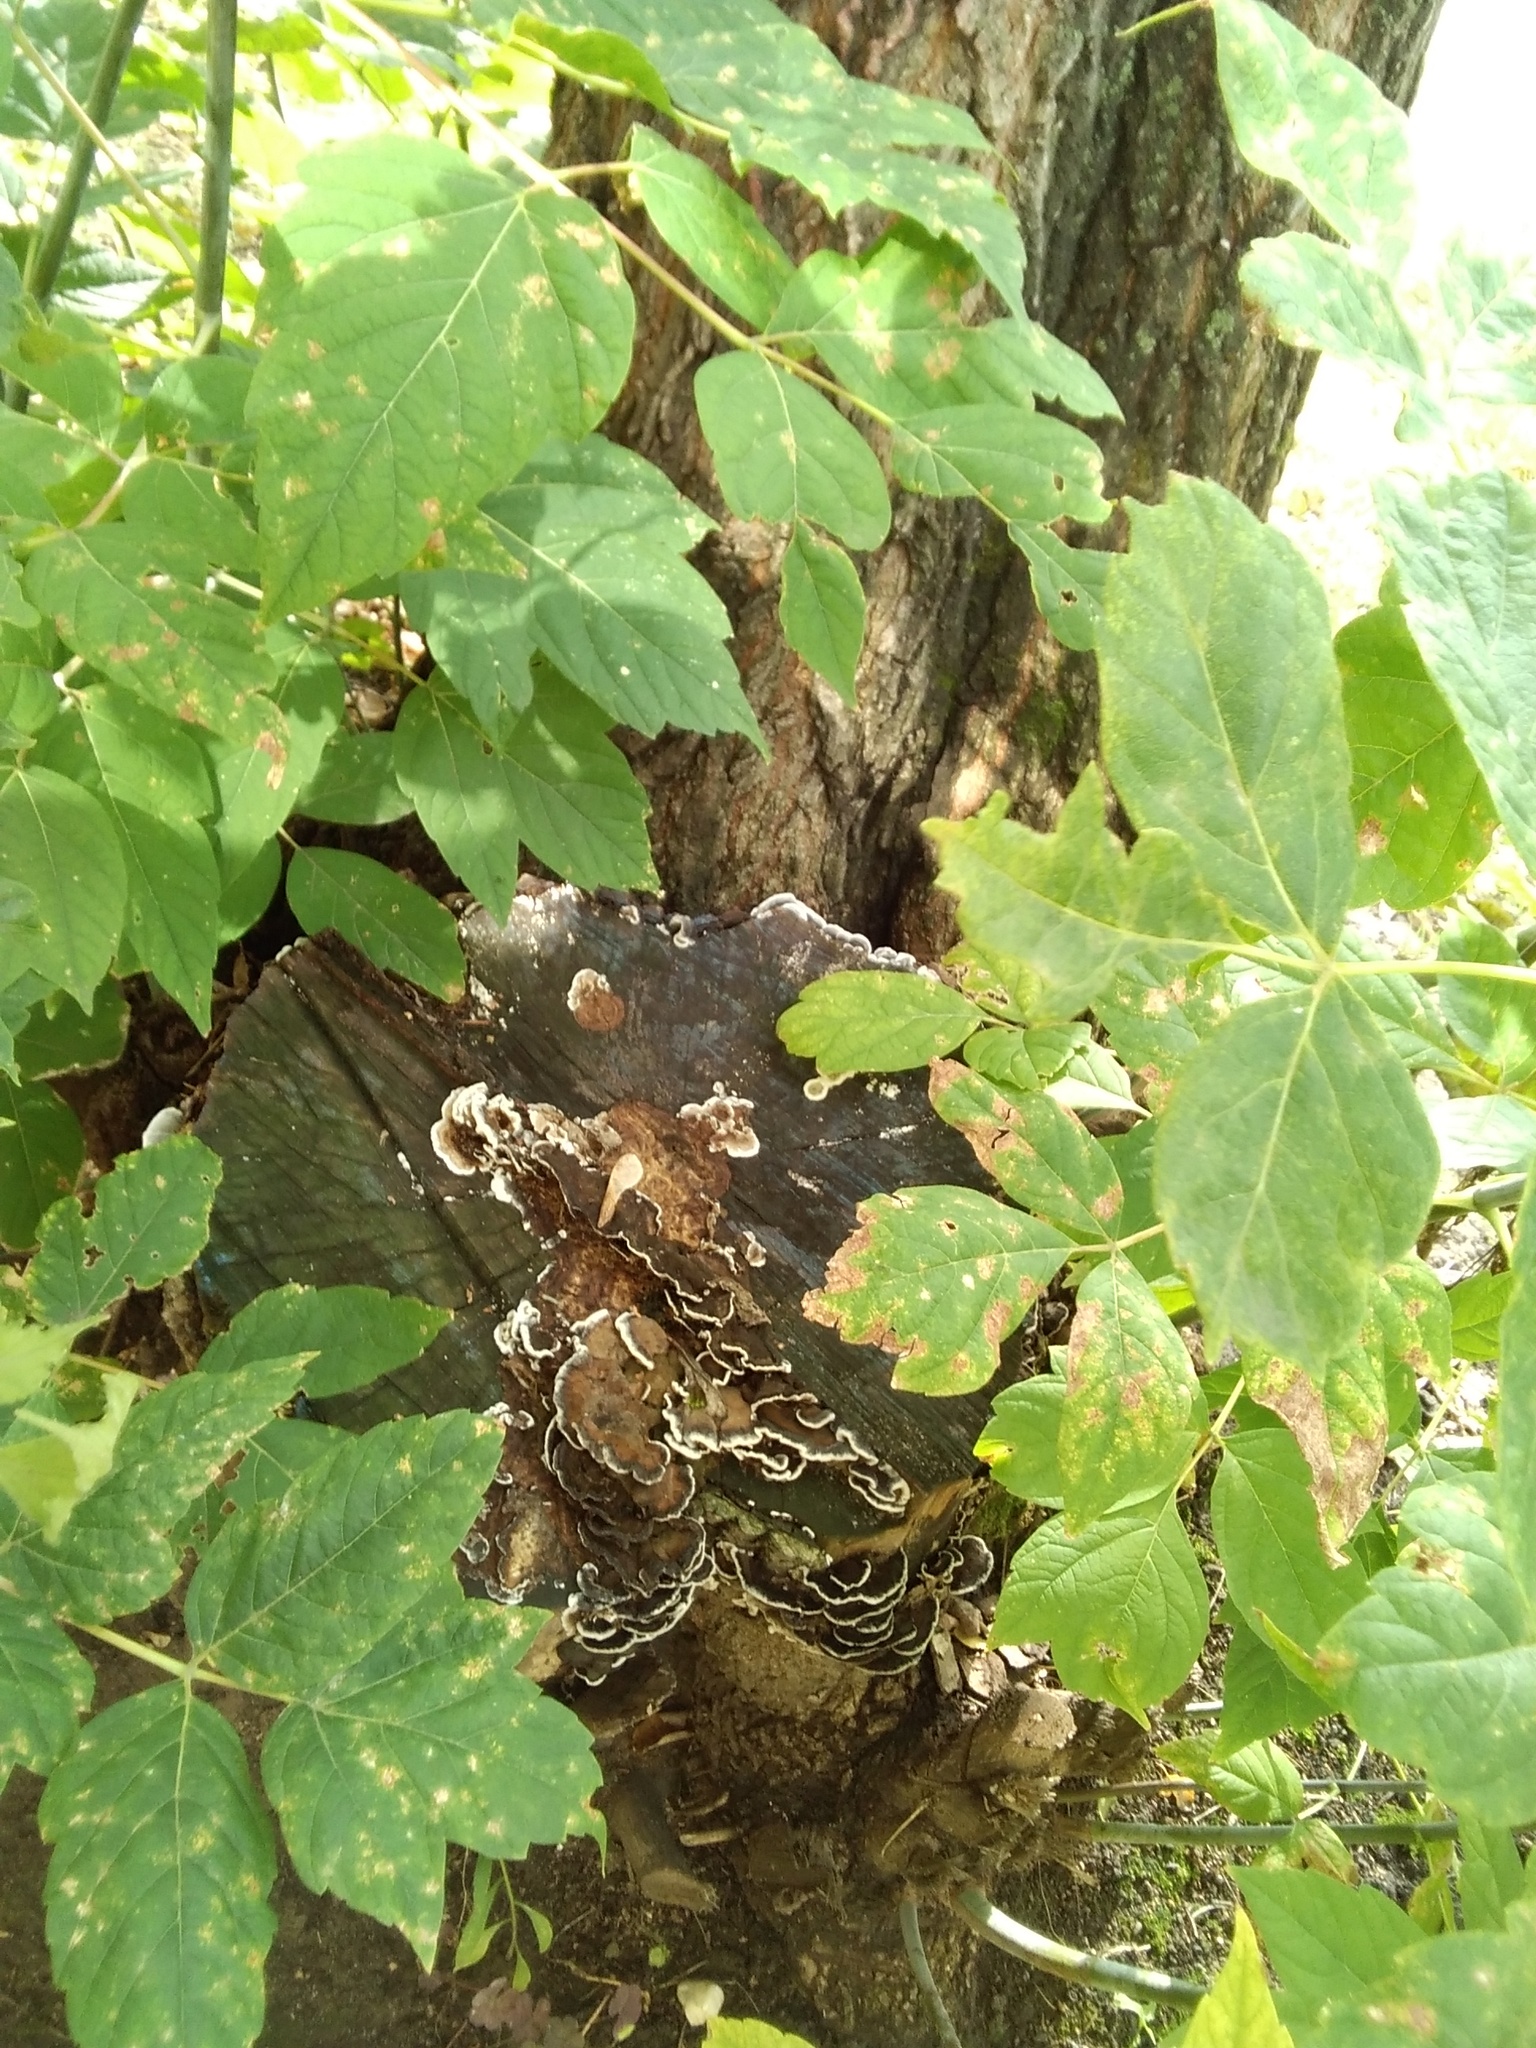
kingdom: Fungi
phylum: Basidiomycota
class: Agaricomycetes
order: Polyporales
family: Phanerochaetaceae
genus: Bjerkandera
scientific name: Bjerkandera adusta
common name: Smoky bracket
